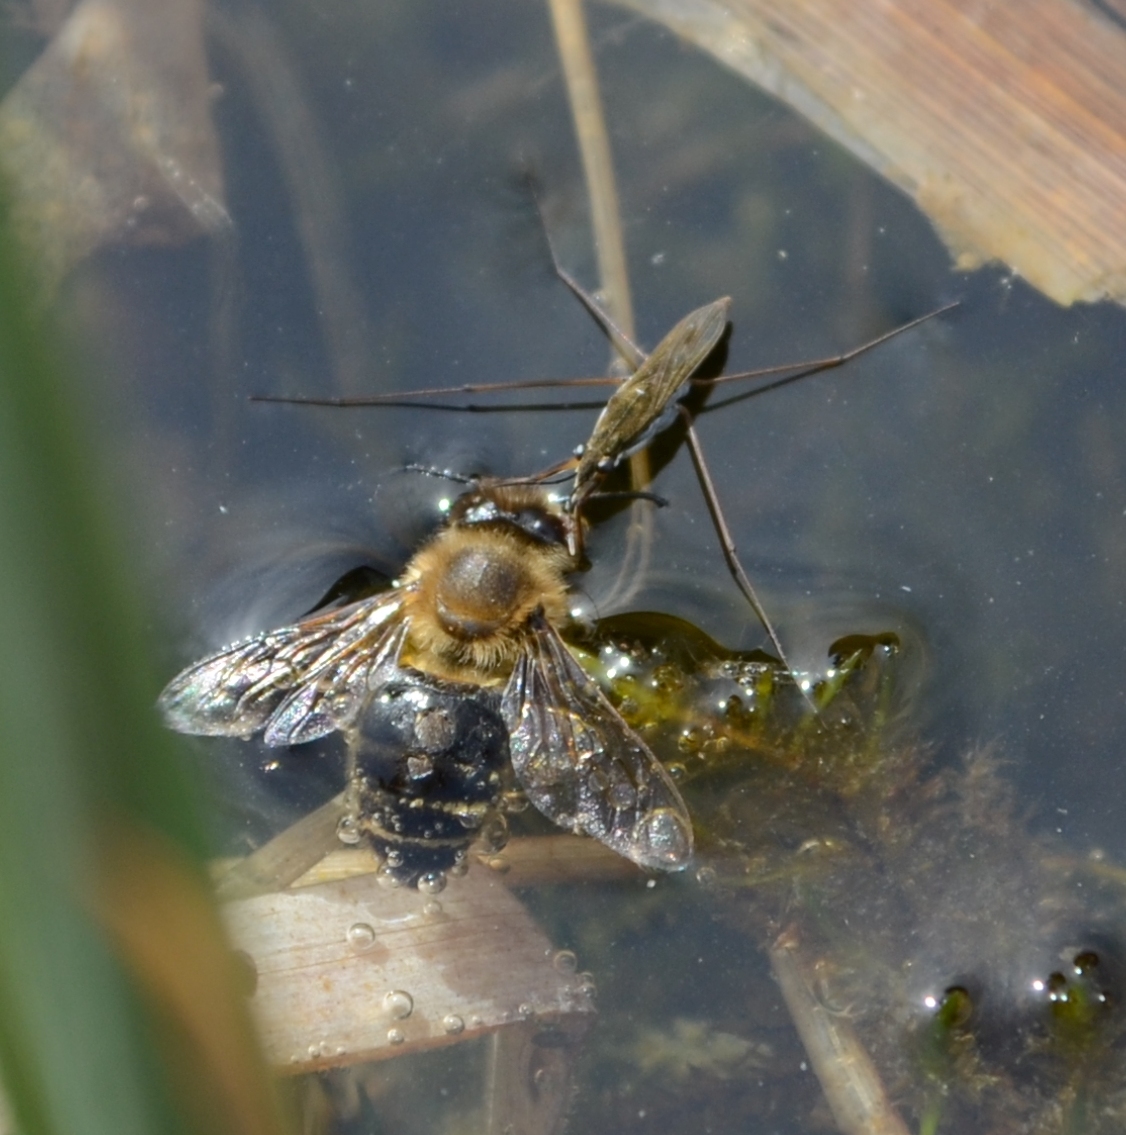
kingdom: Animalia
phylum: Arthropoda
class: Insecta
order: Hymenoptera
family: Apidae
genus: Apis
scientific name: Apis mellifera
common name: Honey bee
